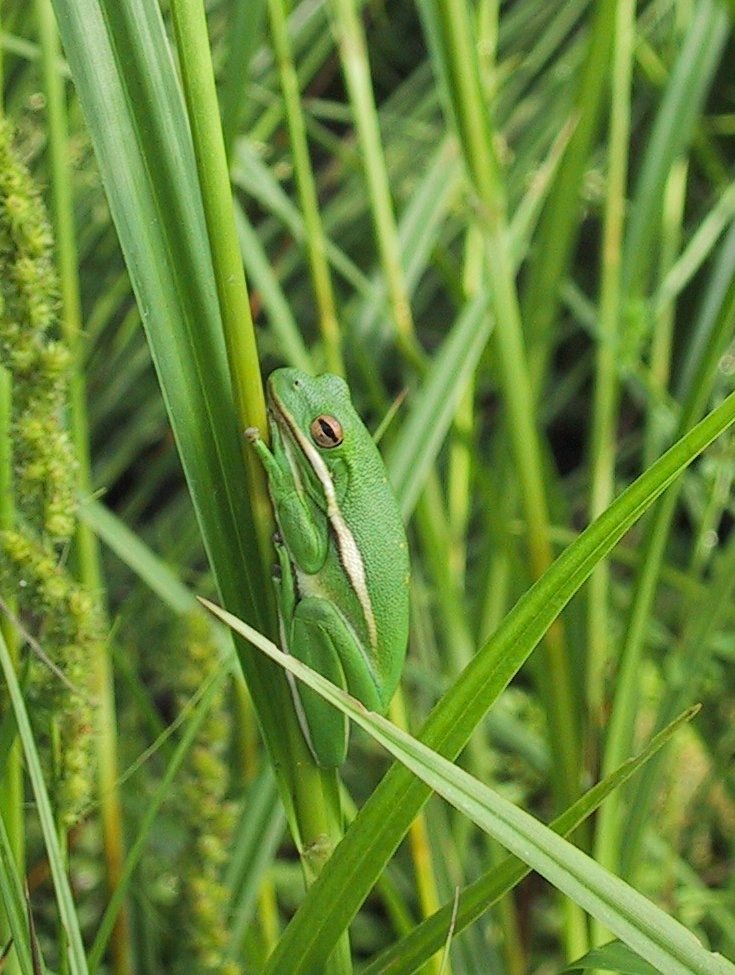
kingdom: Animalia
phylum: Chordata
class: Amphibia
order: Anura
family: Hylidae
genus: Dryophytes
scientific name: Dryophytes cinereus
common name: Green treefrog
